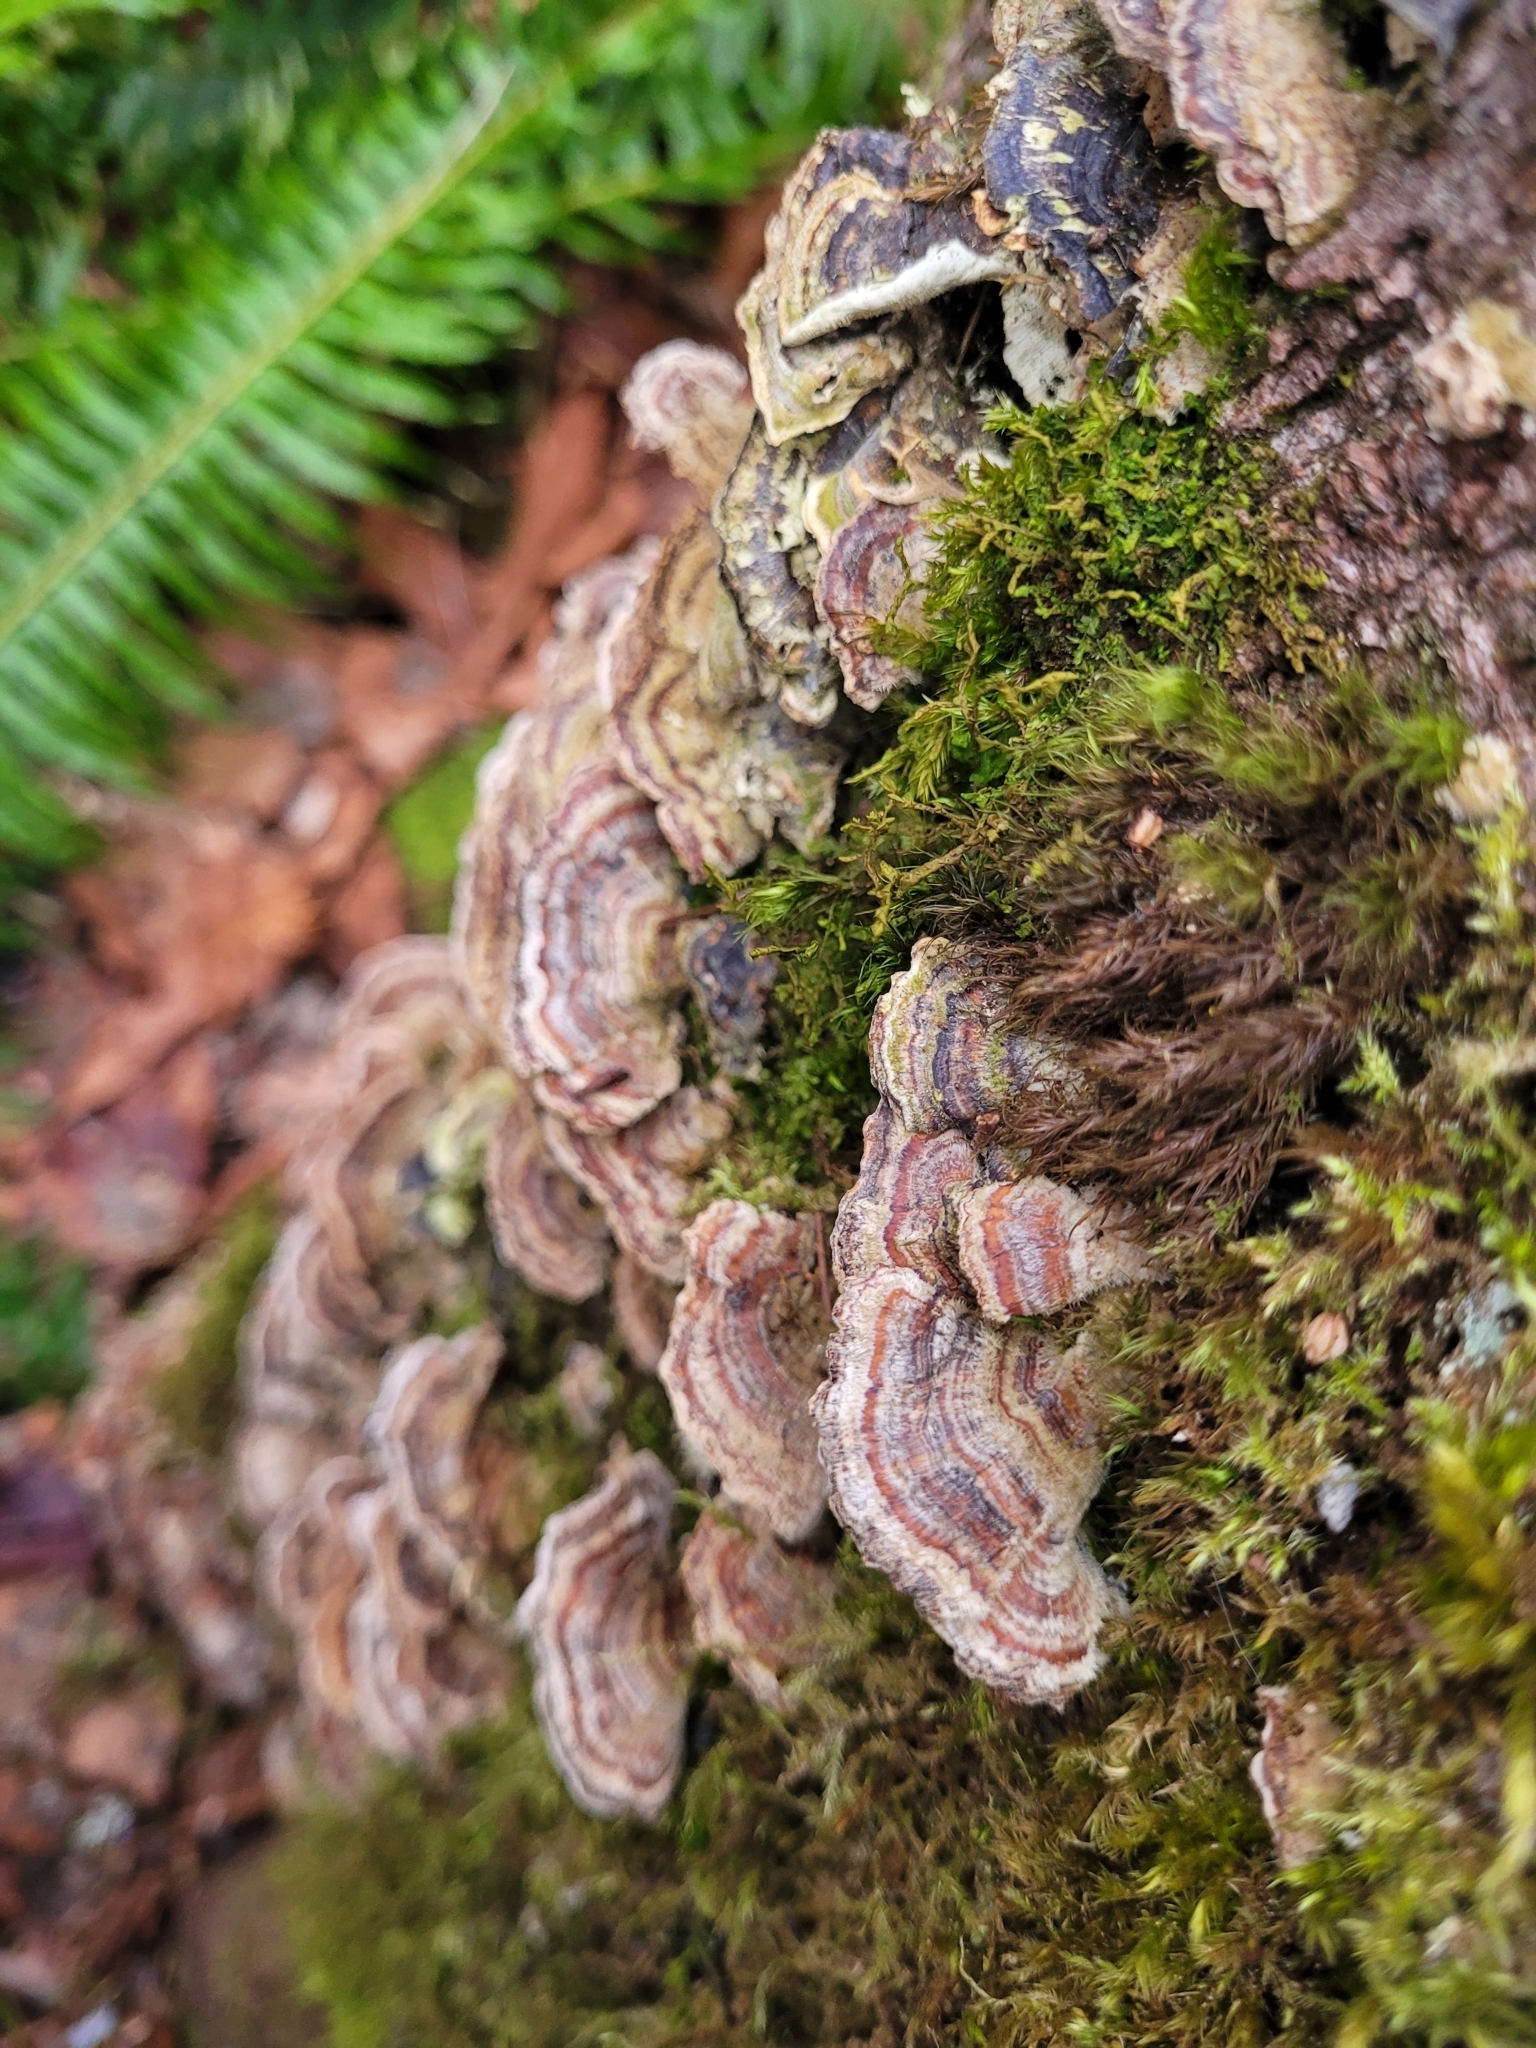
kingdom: Fungi
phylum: Basidiomycota
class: Agaricomycetes
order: Polyporales
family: Polyporaceae
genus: Trametes
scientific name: Trametes versicolor
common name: Turkeytail
